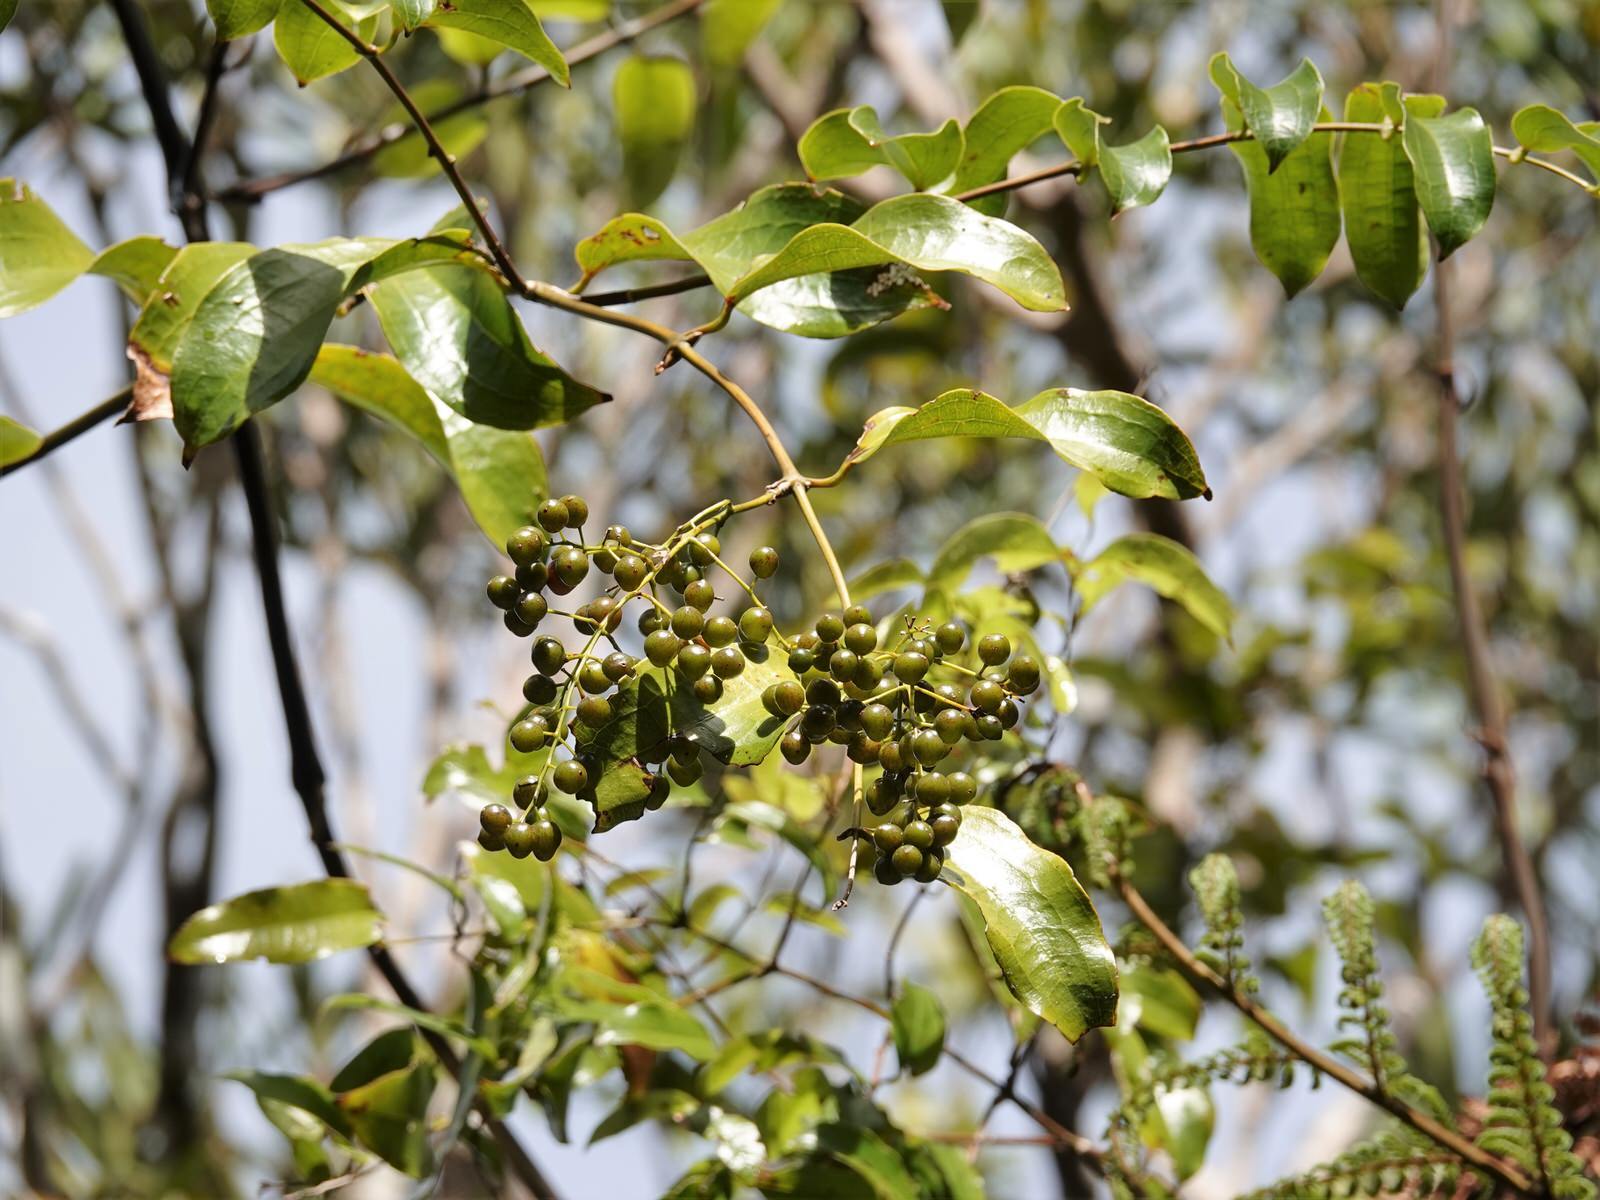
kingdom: Plantae
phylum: Tracheophyta
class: Liliopsida
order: Liliales
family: Ripogonaceae
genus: Ripogonum
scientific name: Ripogonum scandens
